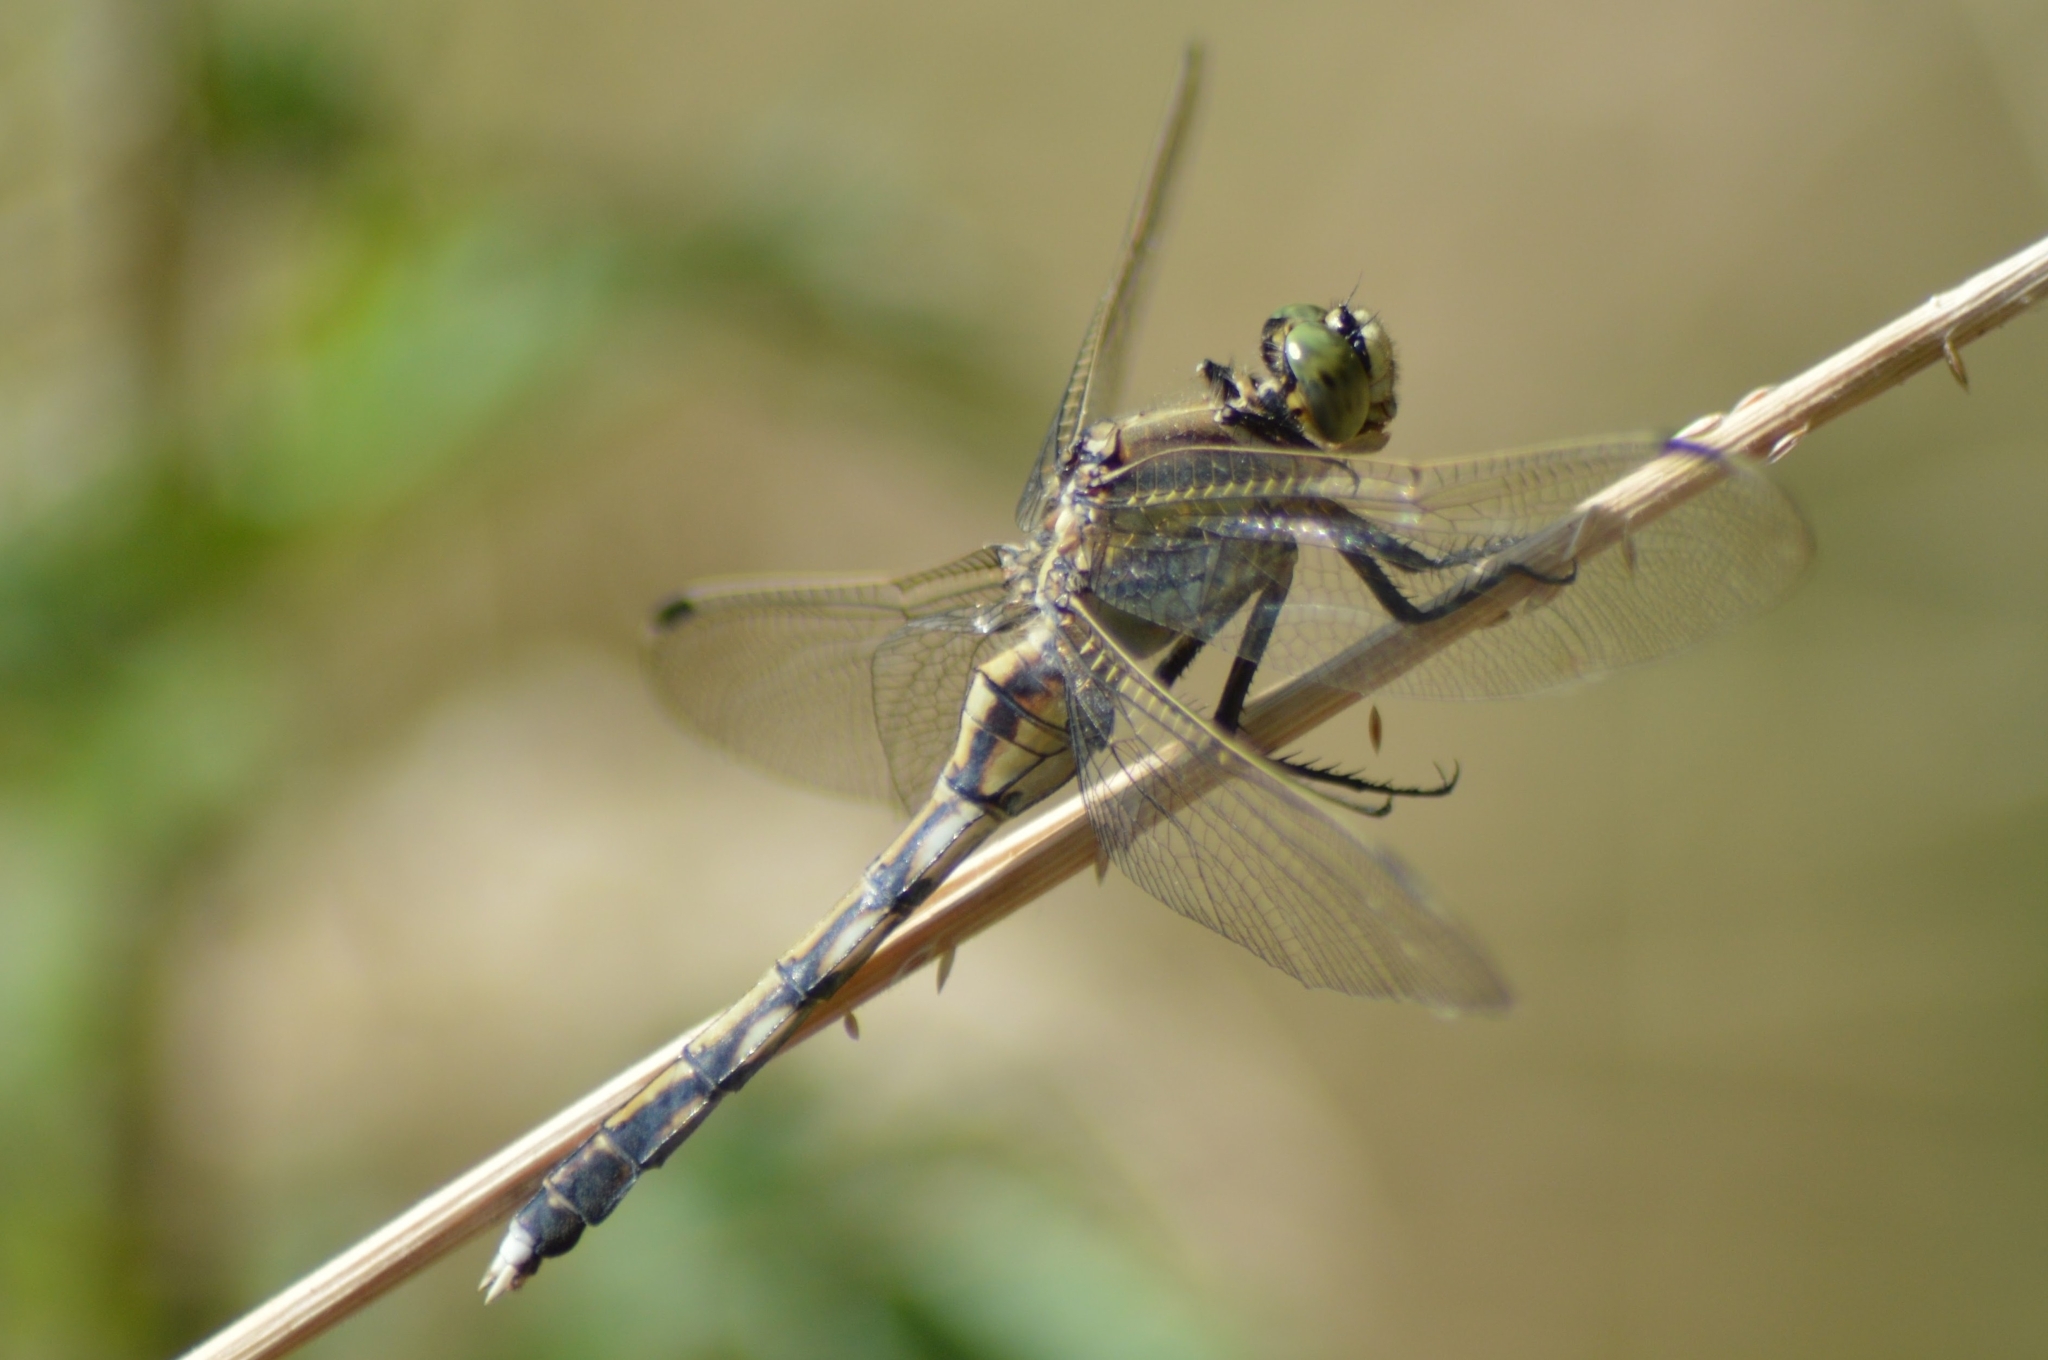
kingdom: Animalia
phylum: Arthropoda
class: Insecta
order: Odonata
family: Libellulidae
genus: Orthetrum
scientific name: Orthetrum albistylum
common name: White-tailed skimmer
